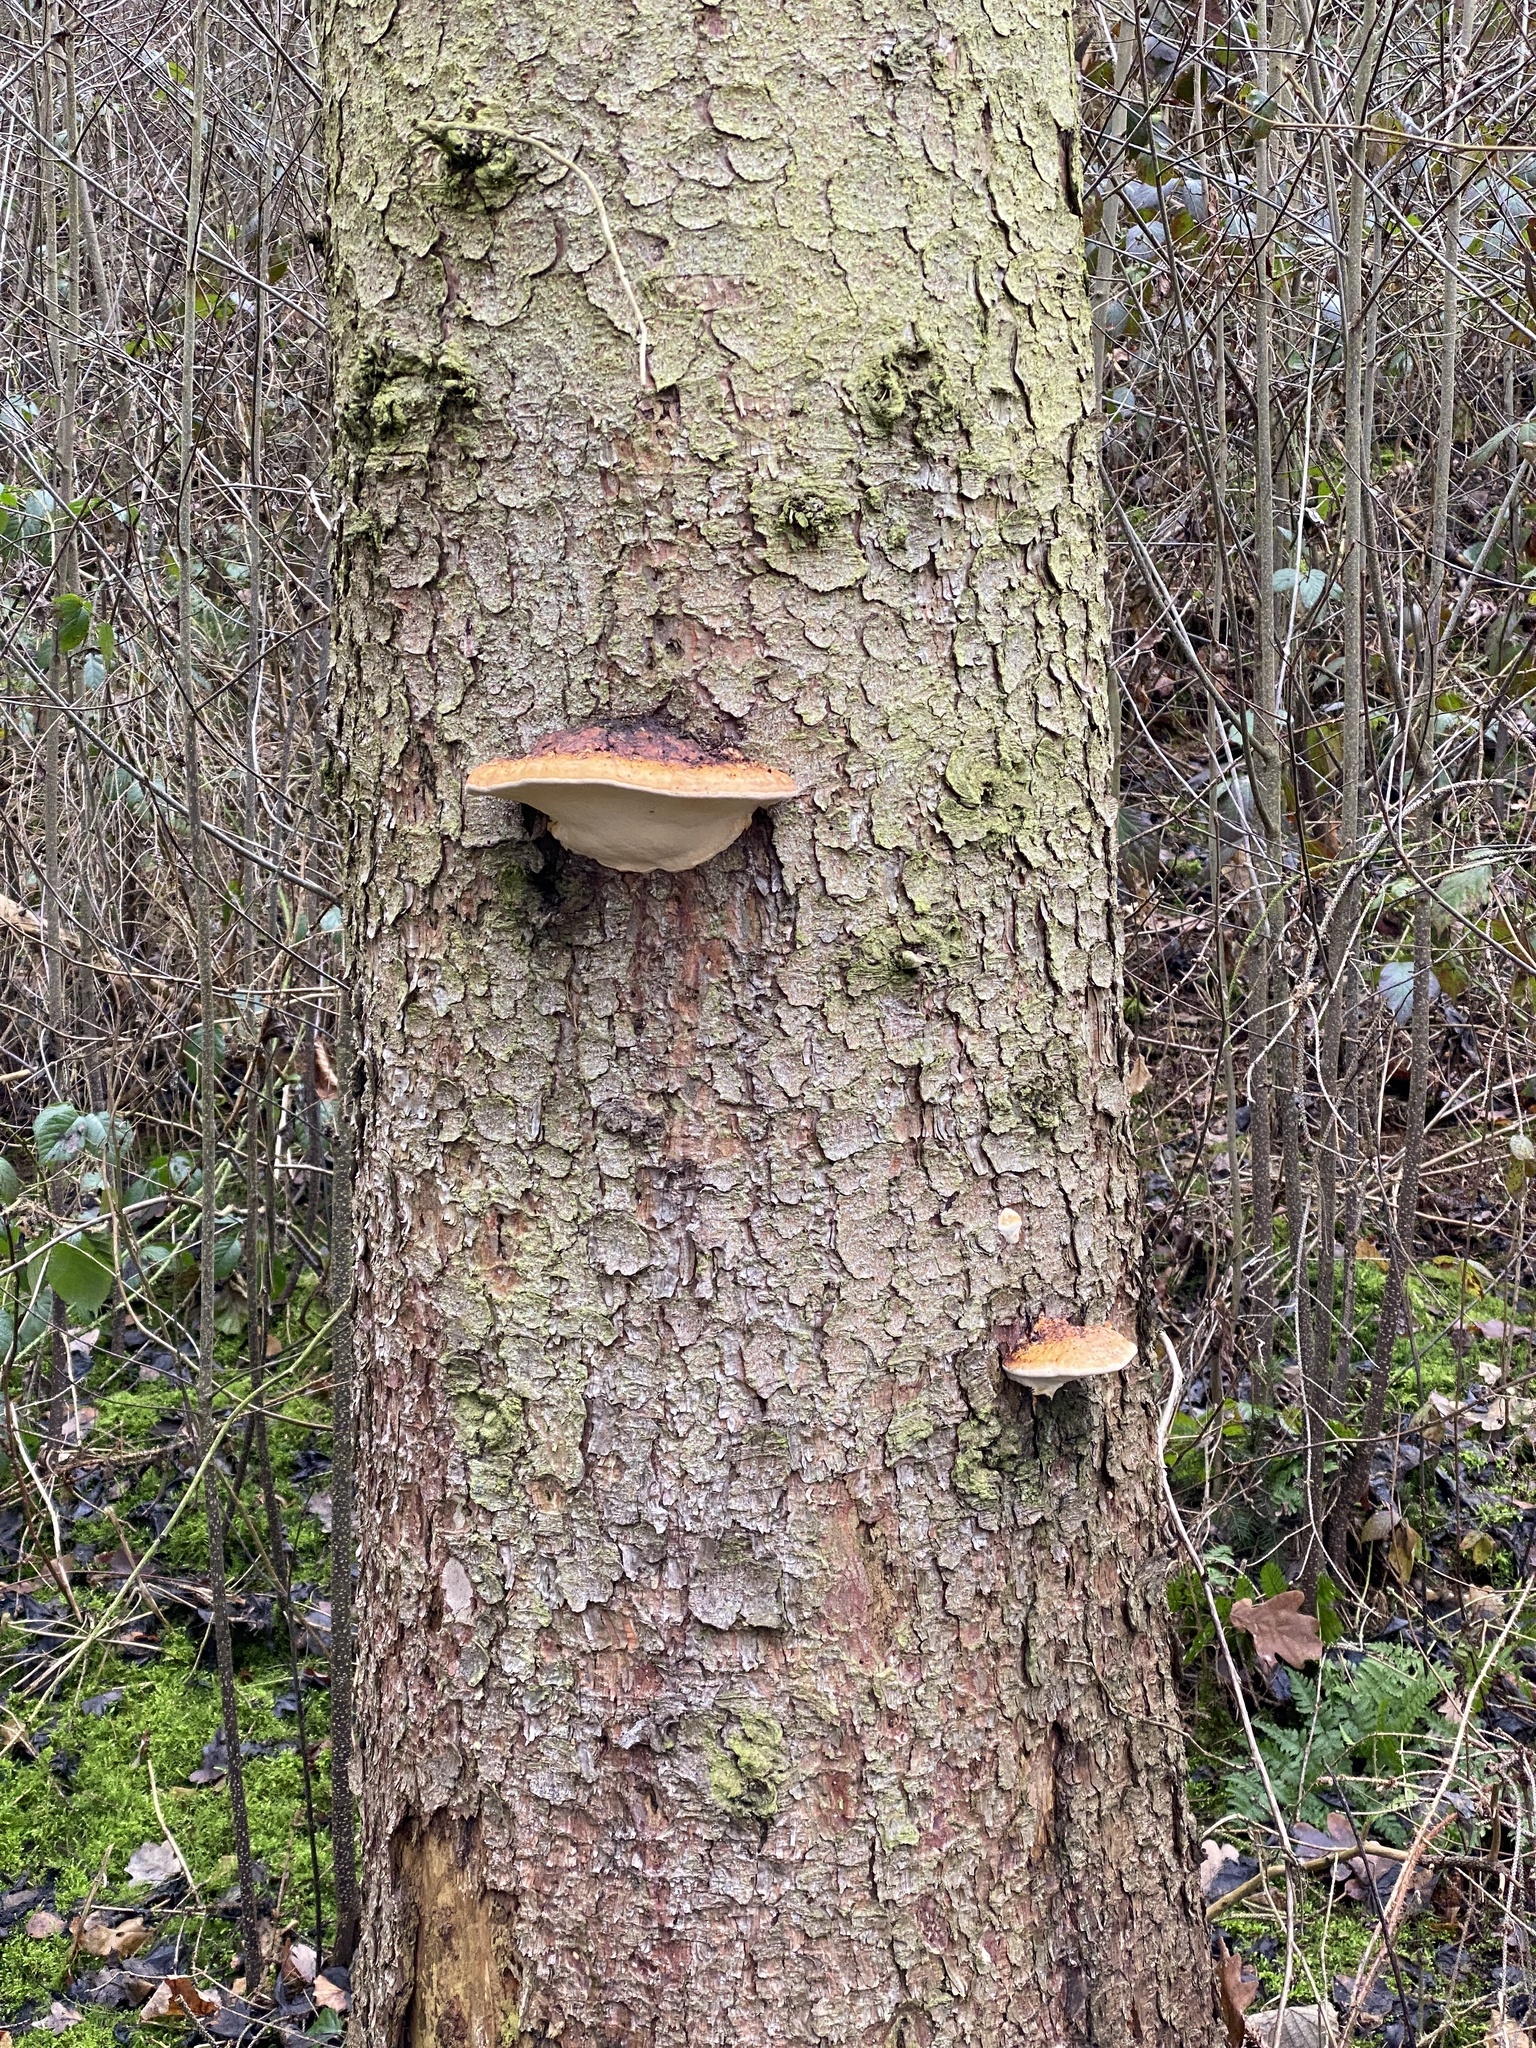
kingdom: Fungi
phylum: Basidiomycota
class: Agaricomycetes
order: Polyporales
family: Fomitopsidaceae
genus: Fomitopsis
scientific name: Fomitopsis pinicola
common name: Red-belted bracket
